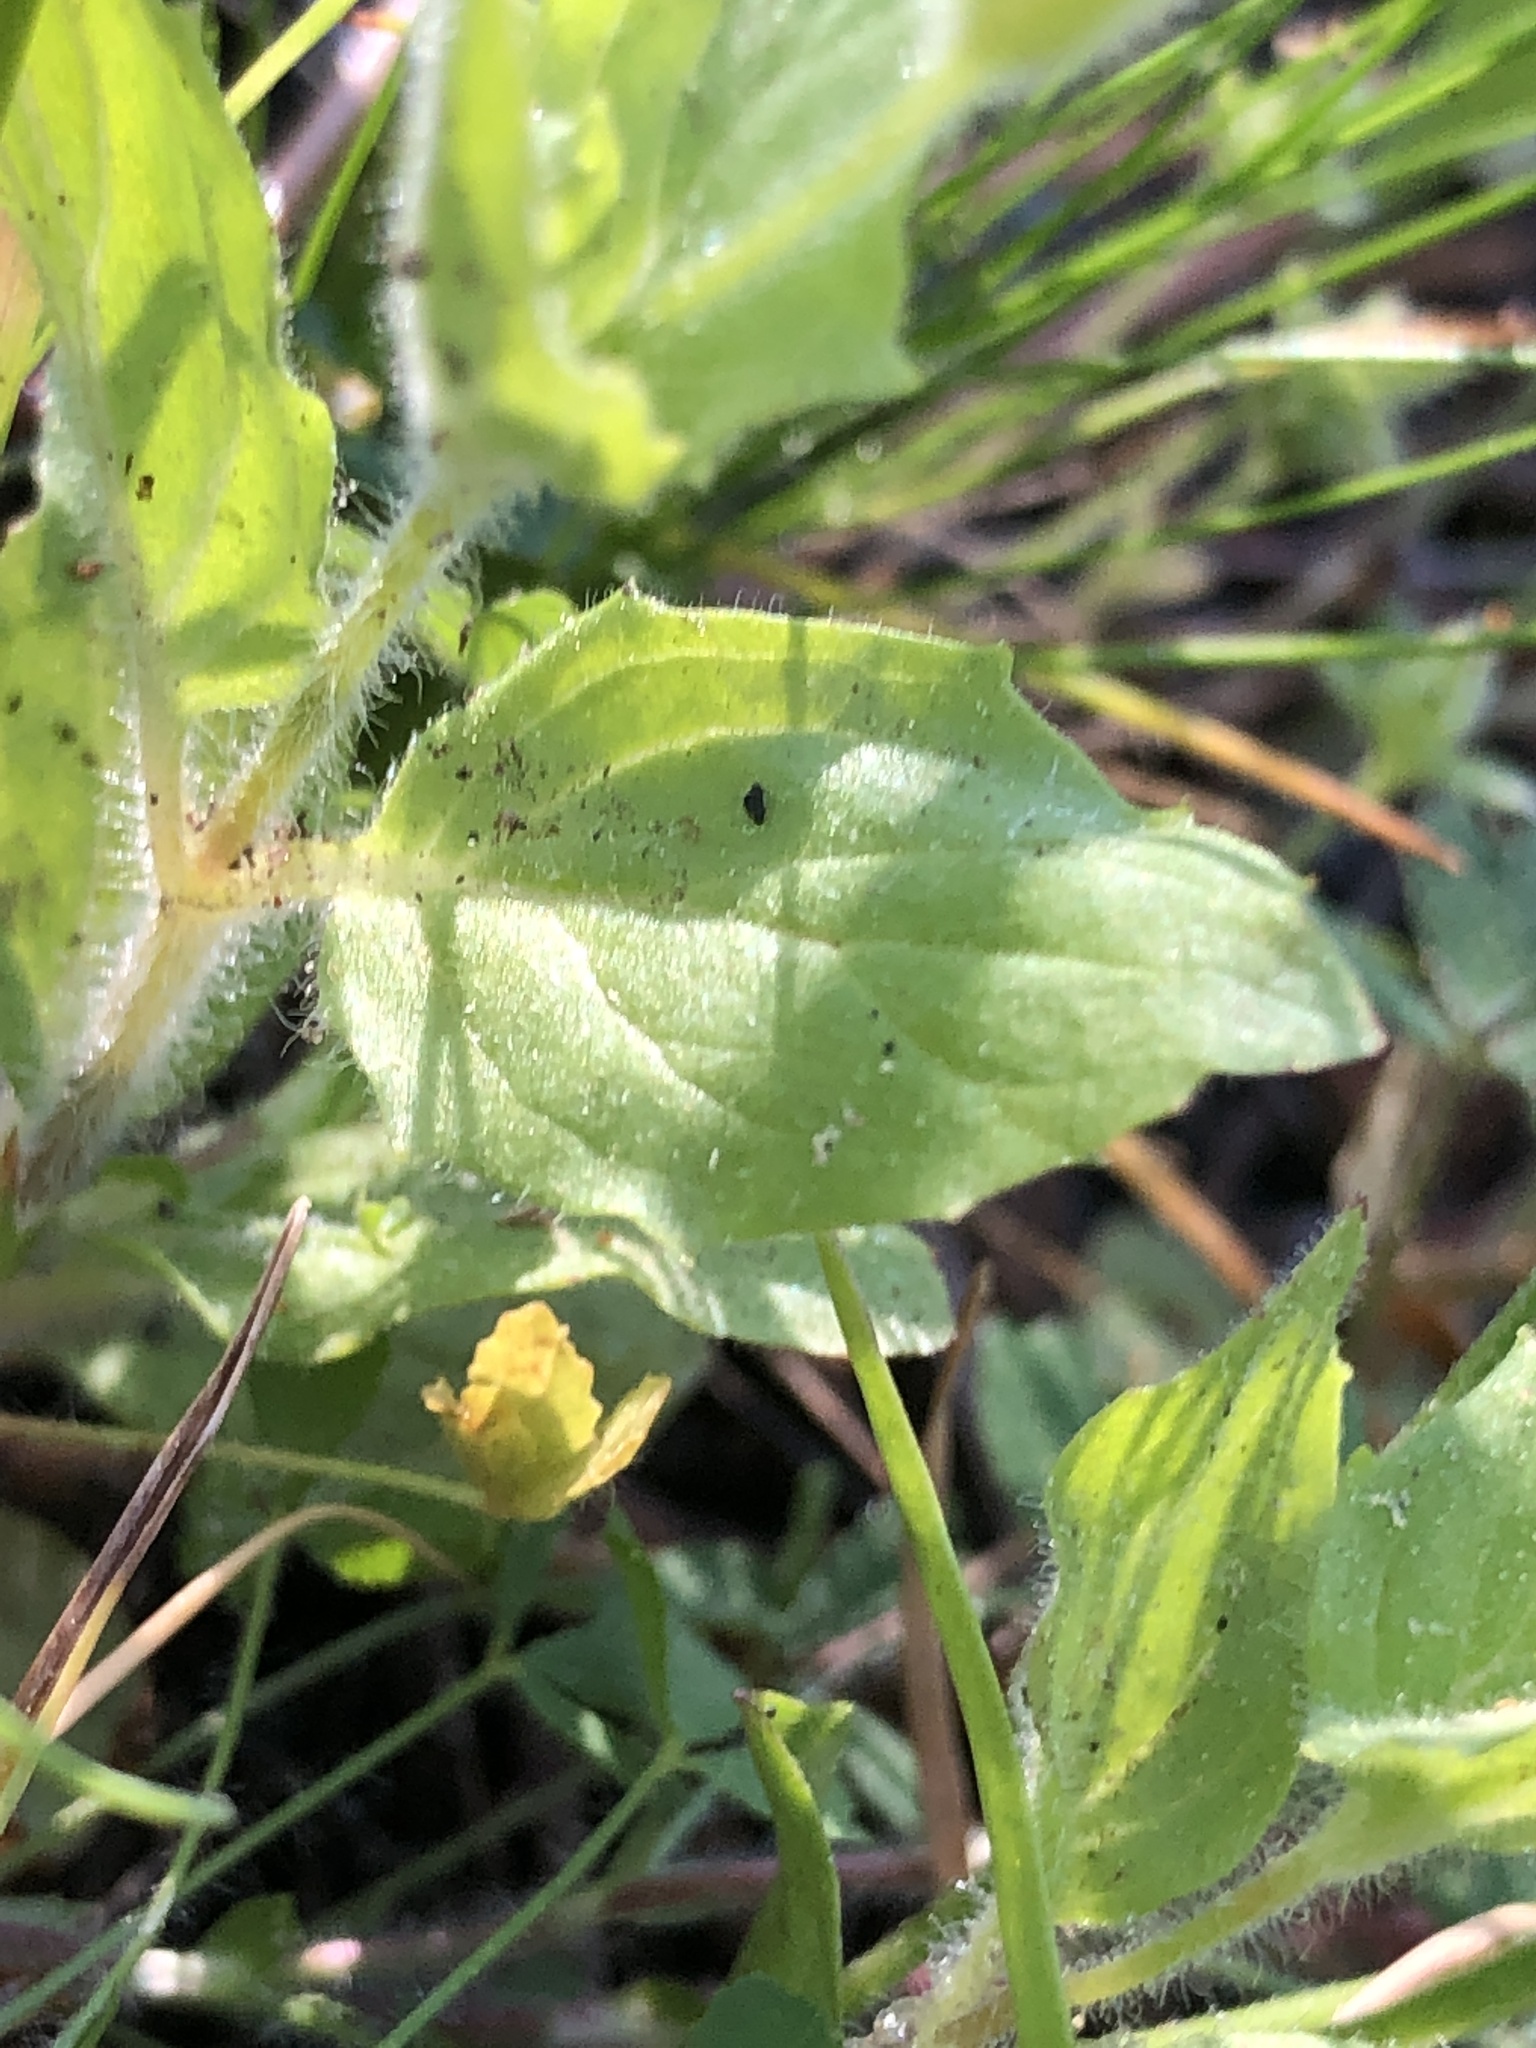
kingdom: Plantae
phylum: Tracheophyta
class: Magnoliopsida
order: Lamiales
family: Phrymaceae
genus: Erythranthe
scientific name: Erythranthe moschata
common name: Muskflower
